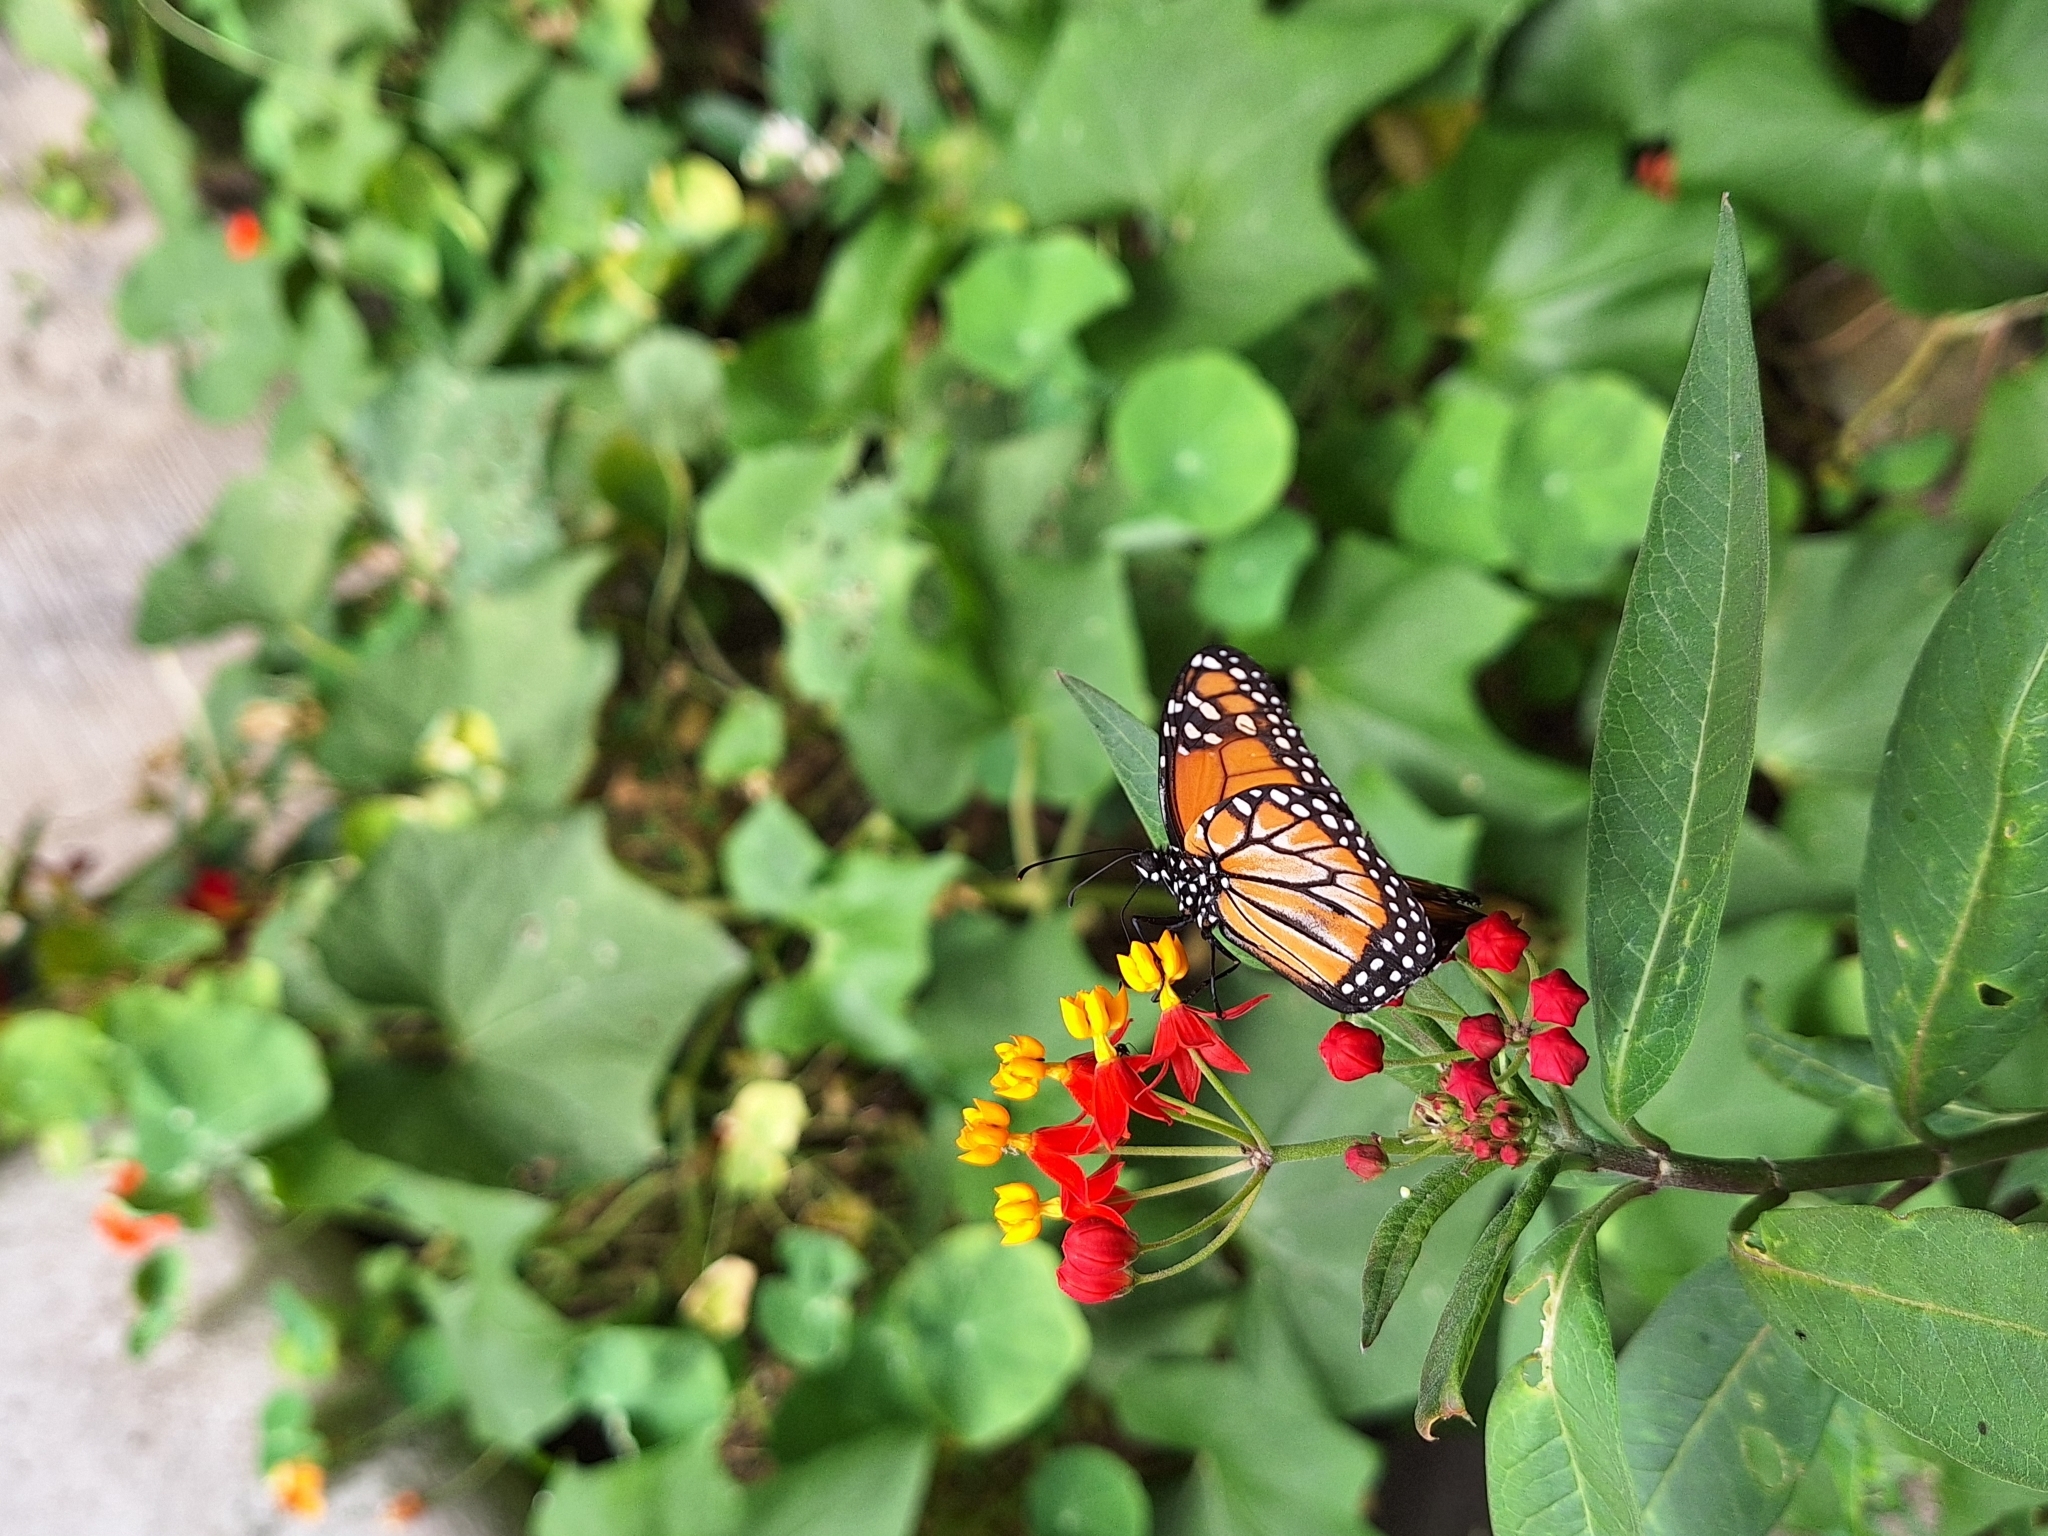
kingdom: Animalia
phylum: Arthropoda
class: Insecta
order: Lepidoptera
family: Nymphalidae
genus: Danaus
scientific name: Danaus erippus
